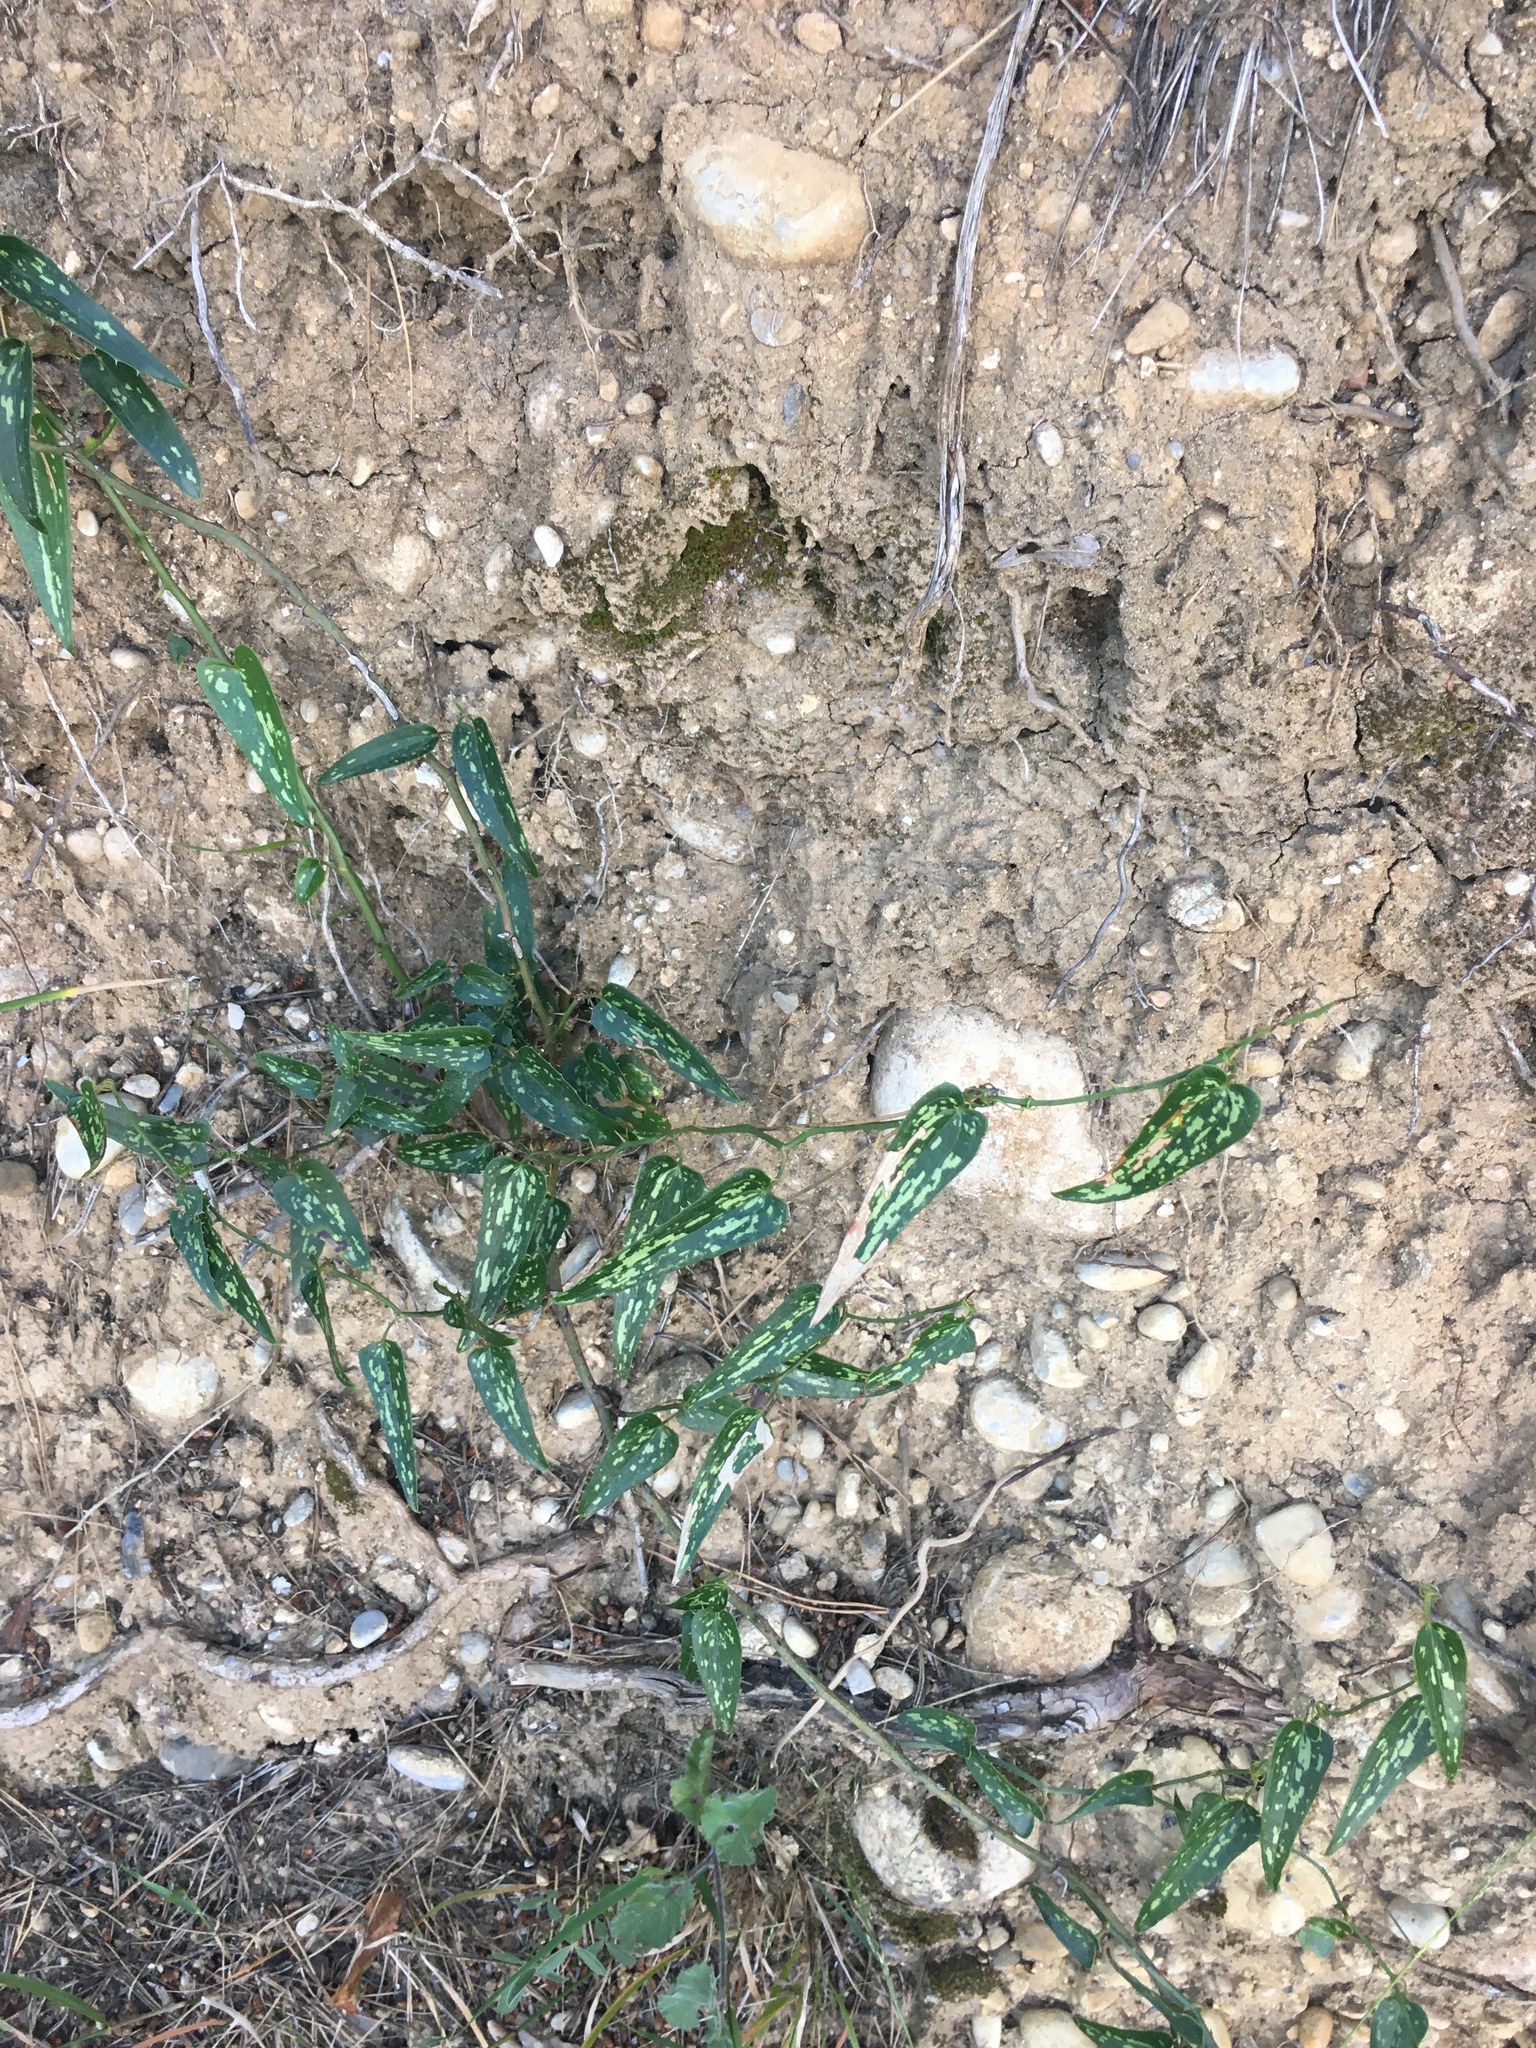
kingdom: Plantae
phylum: Tracheophyta
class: Liliopsida
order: Liliales
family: Smilacaceae
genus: Smilax
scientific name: Smilax aspera
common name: Common smilax
